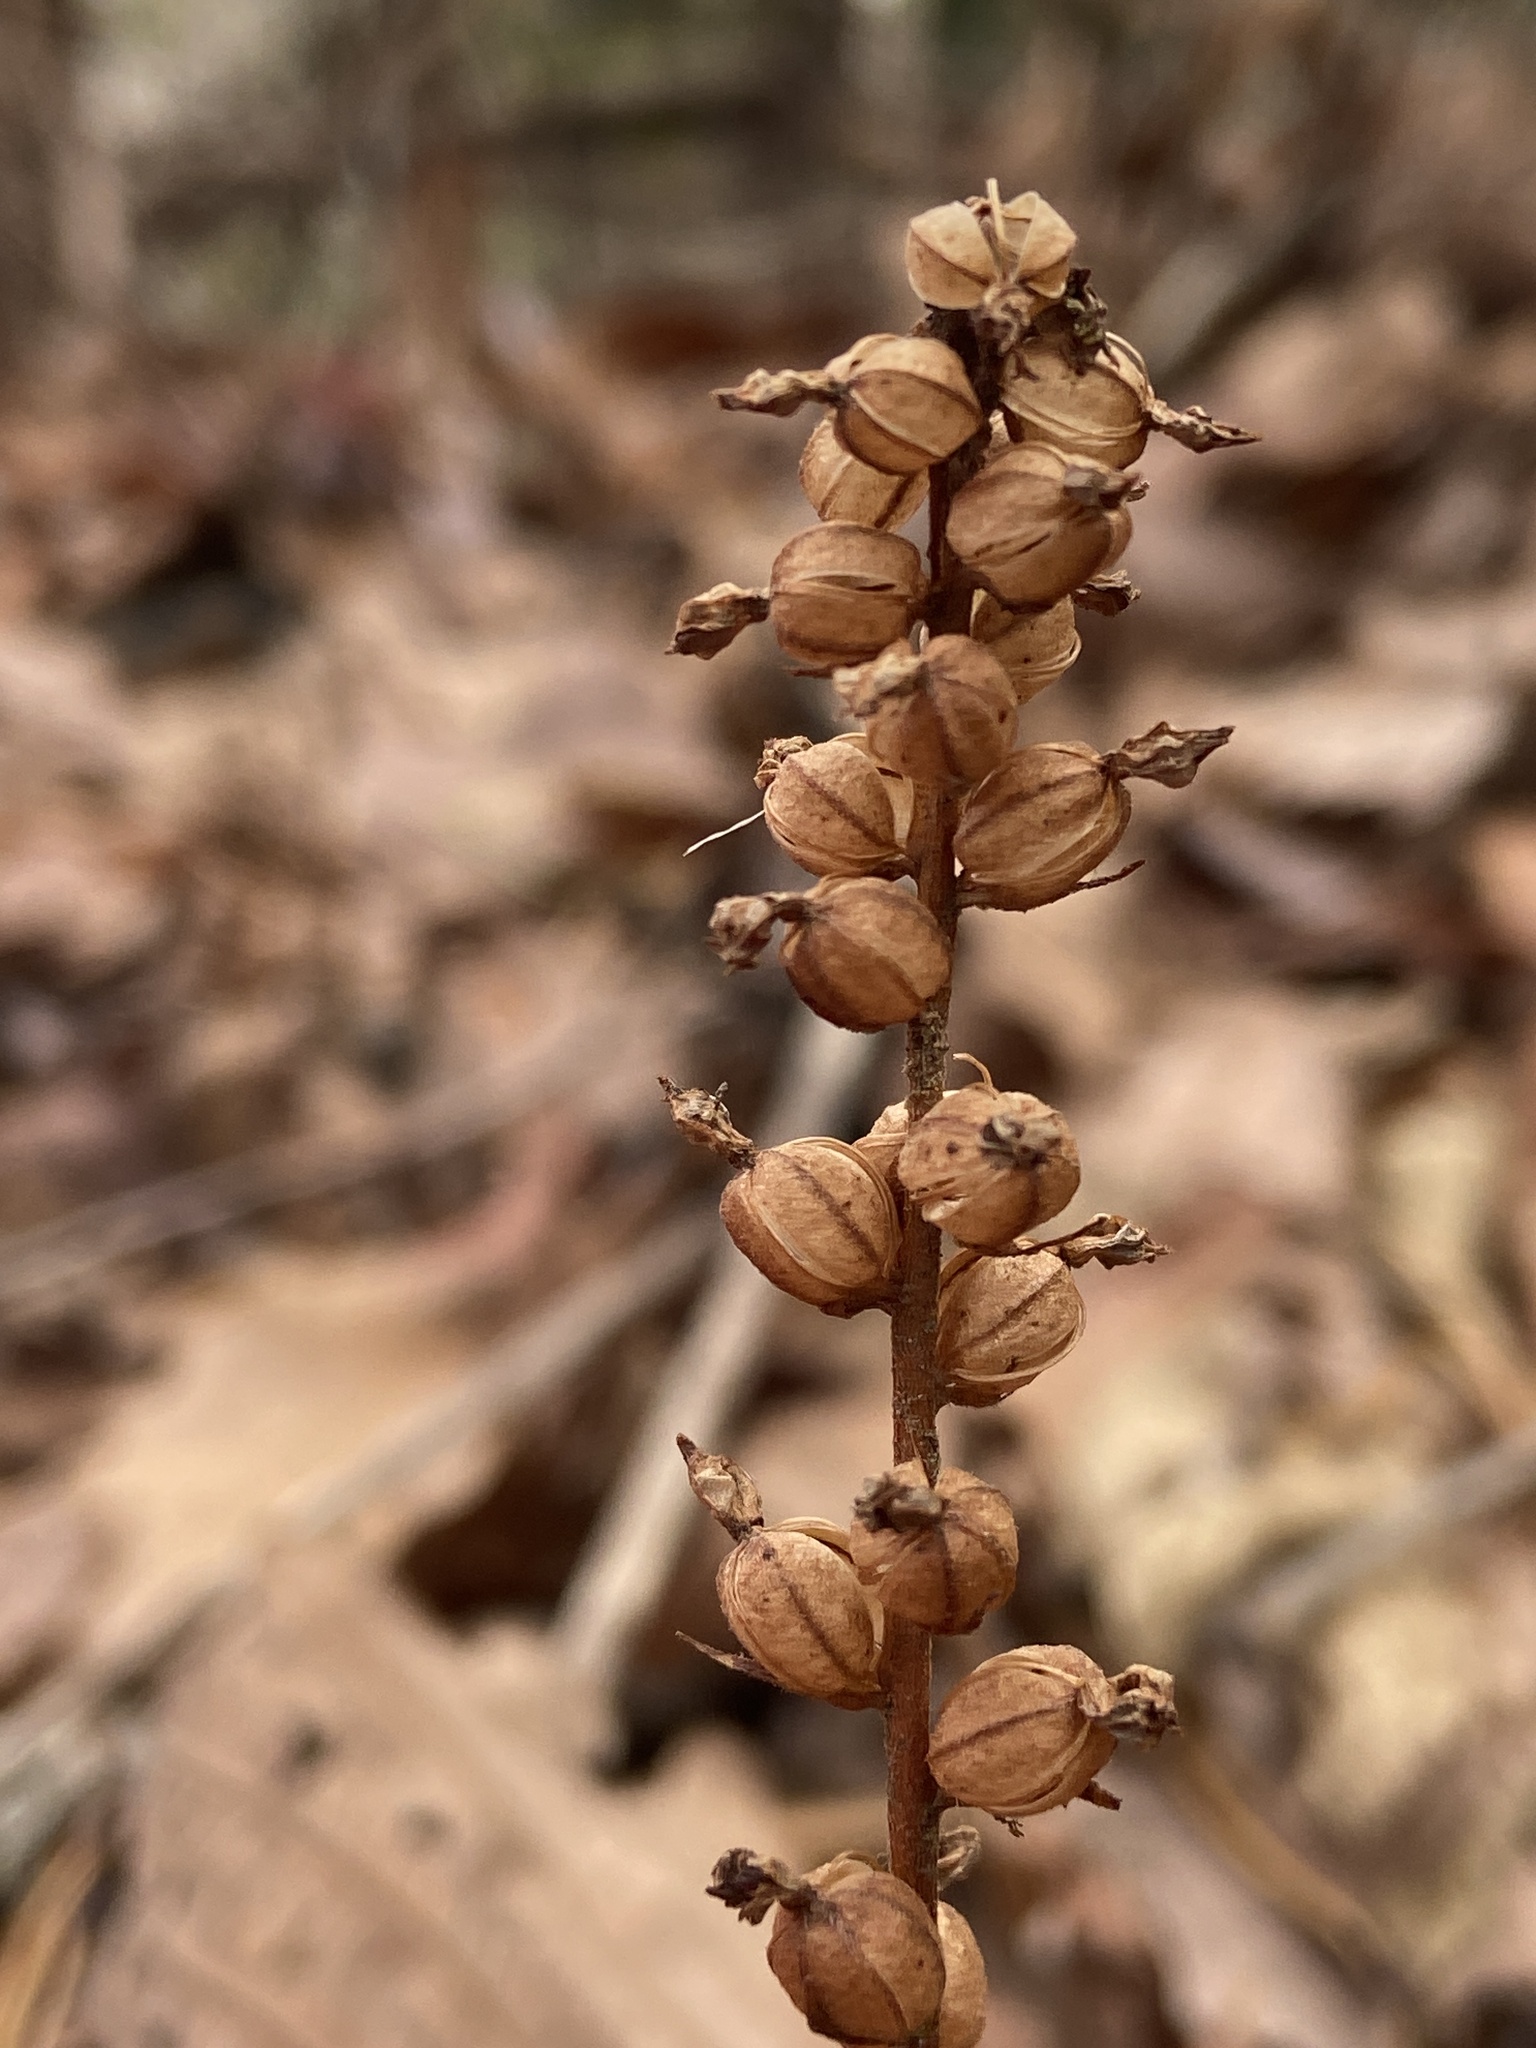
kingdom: Plantae
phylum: Tracheophyta
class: Liliopsida
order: Asparagales
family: Orchidaceae
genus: Goodyera
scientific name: Goodyera pubescens
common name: Downy rattlesnake-plantain
